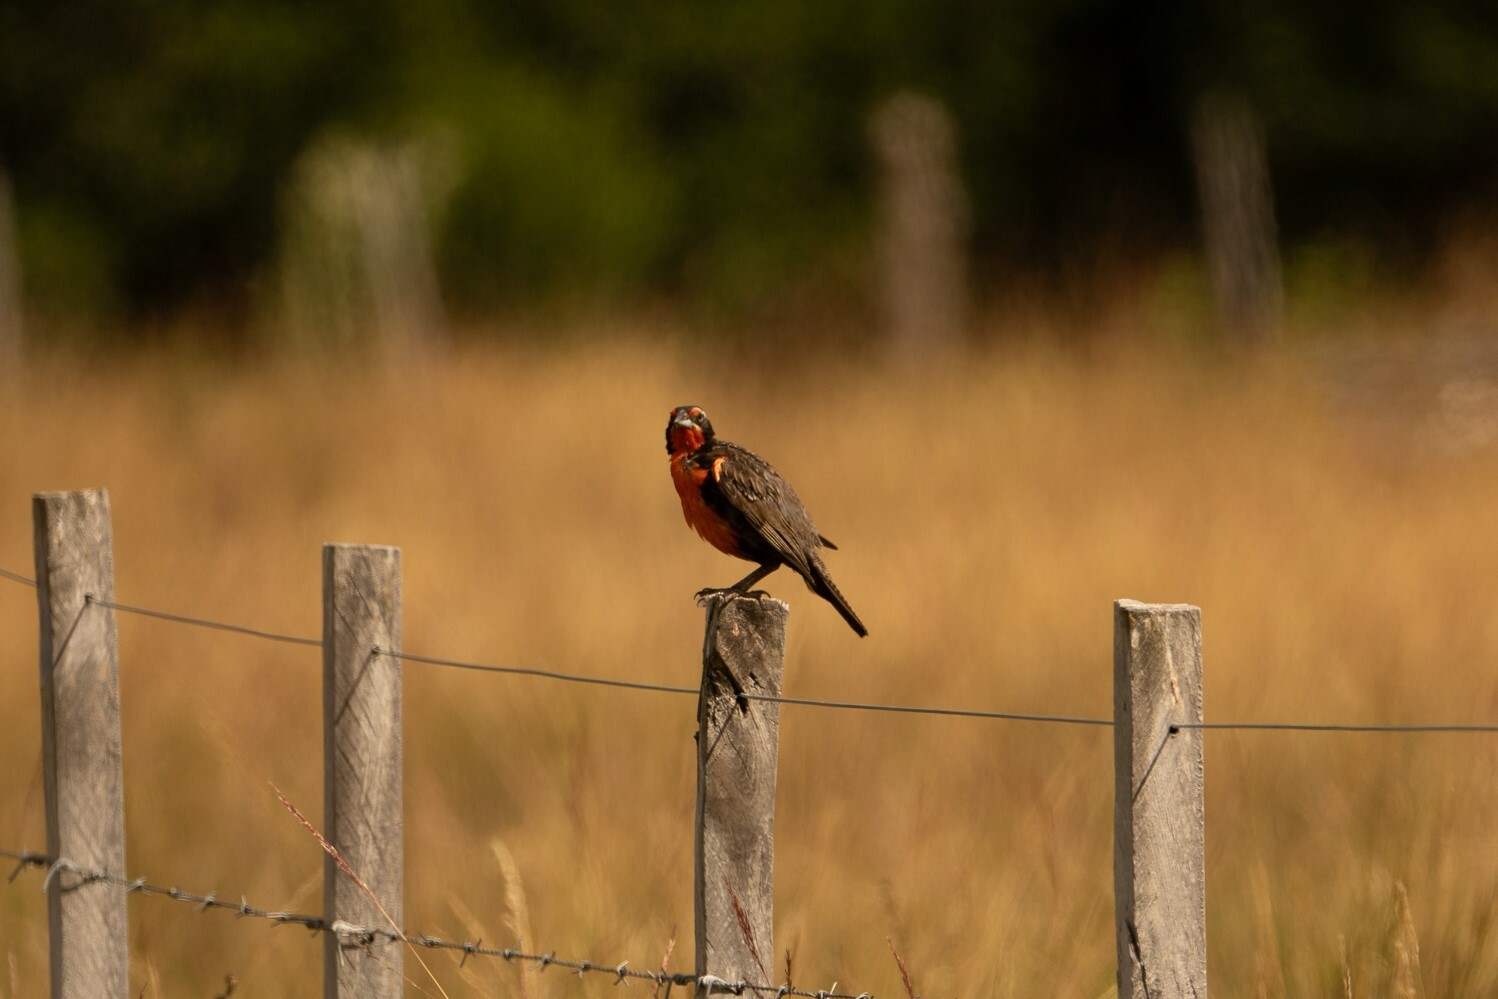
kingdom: Animalia
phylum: Chordata
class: Aves
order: Passeriformes
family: Icteridae
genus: Sturnella
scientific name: Sturnella loyca
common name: Long-tailed meadowlark
